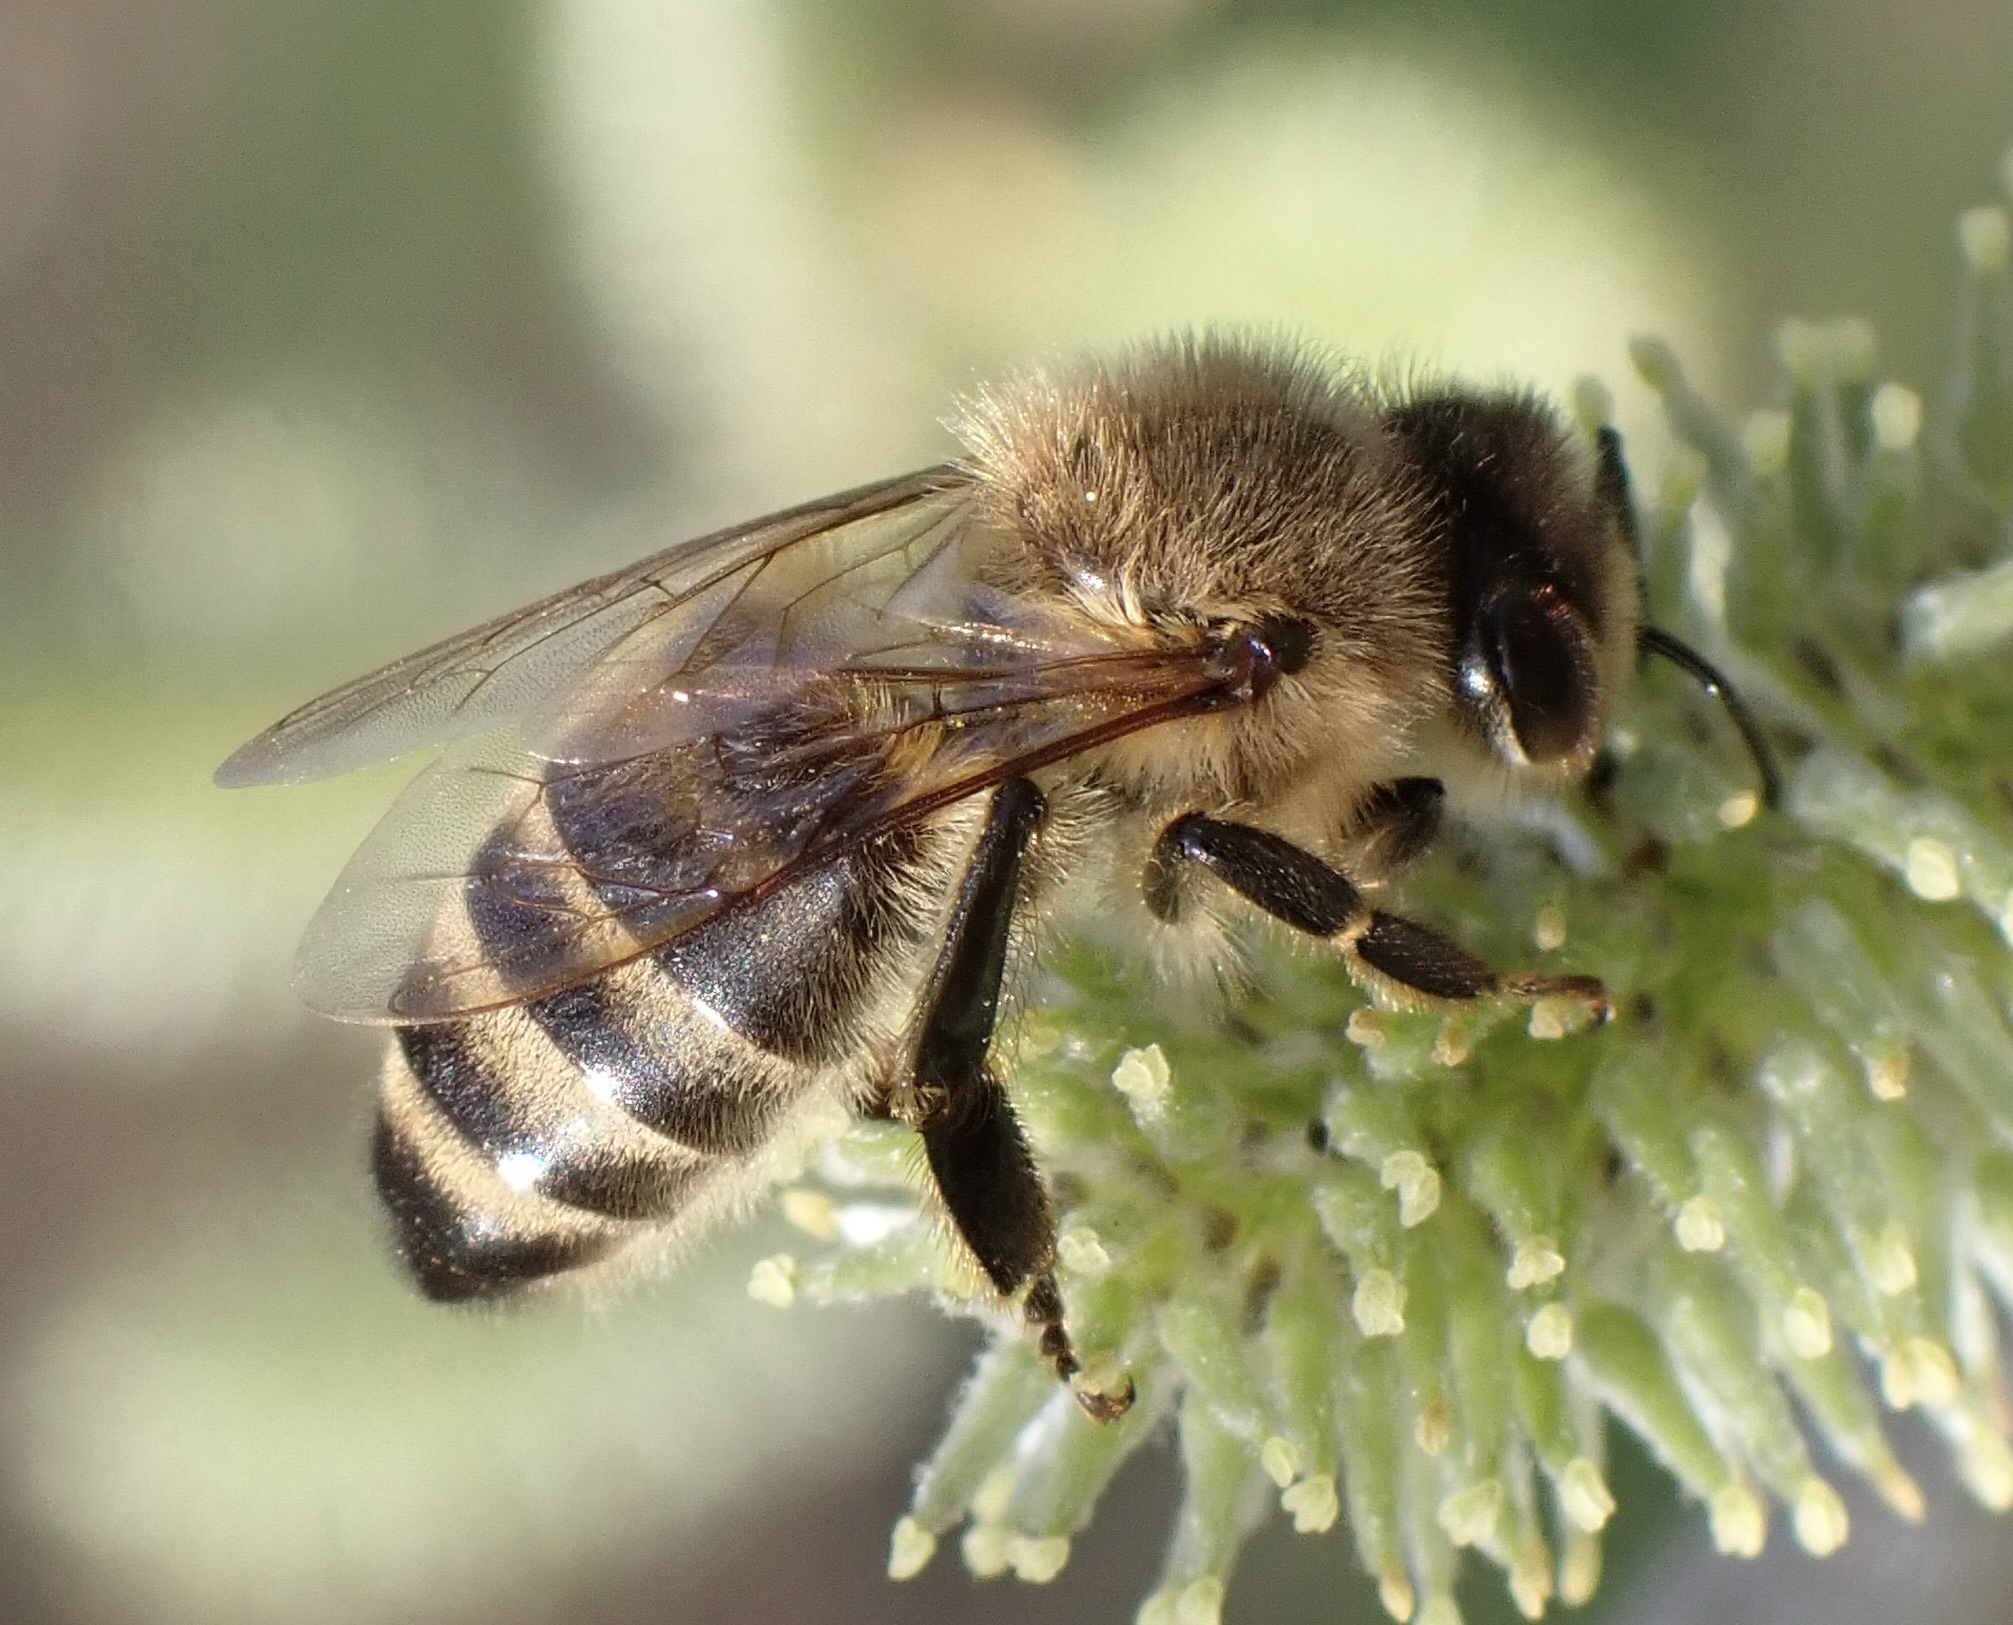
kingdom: Animalia
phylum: Arthropoda
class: Insecta
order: Hymenoptera
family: Apidae
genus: Apis
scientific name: Apis mellifera
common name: Honey bee
